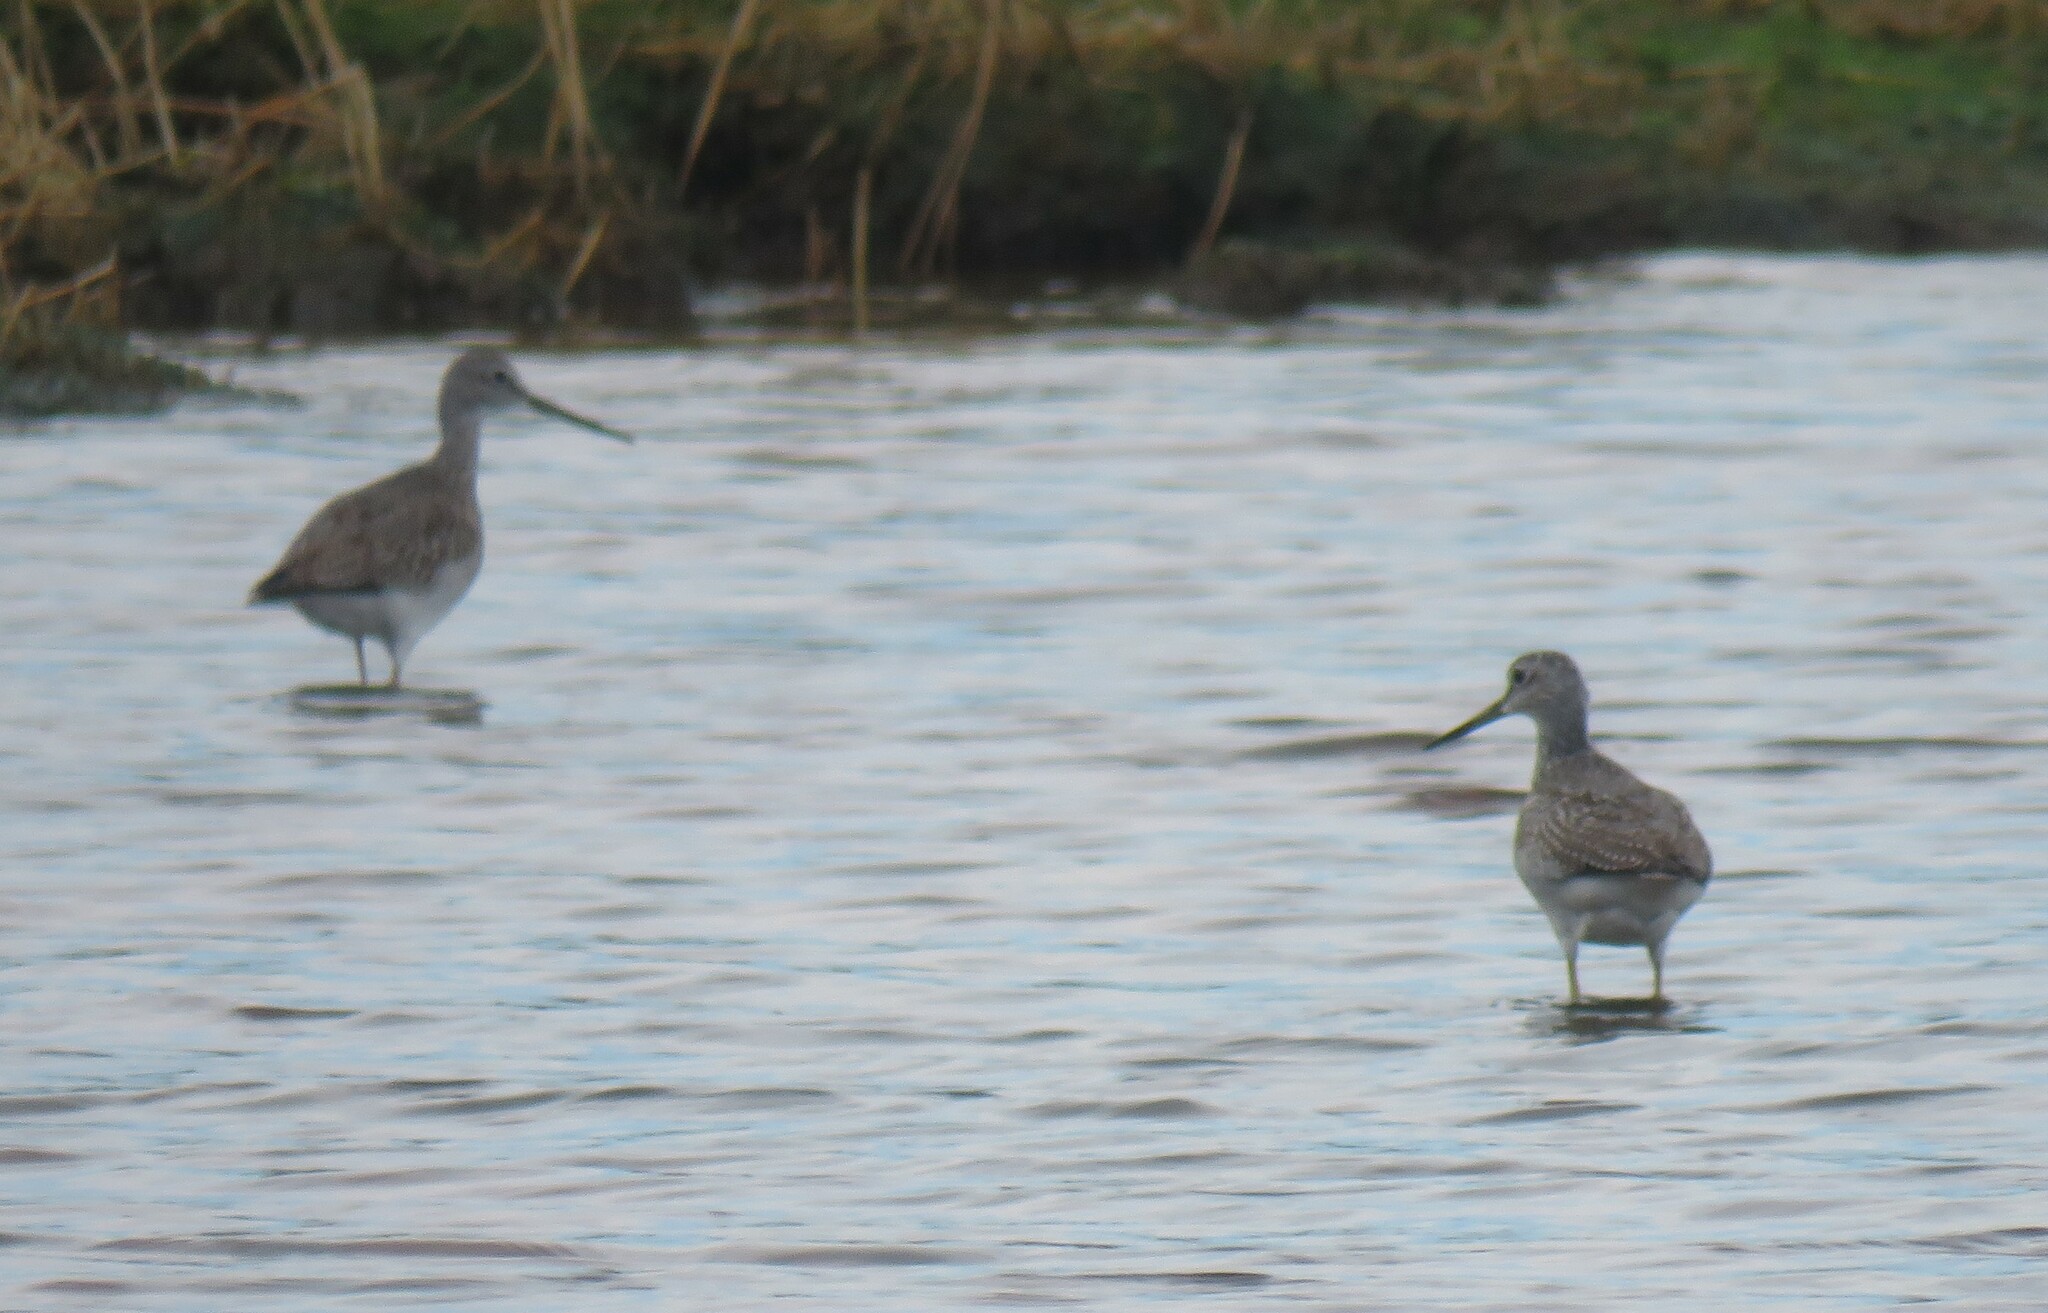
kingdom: Animalia
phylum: Chordata
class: Aves
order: Charadriiformes
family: Scolopacidae
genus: Tringa
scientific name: Tringa flavipes
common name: Lesser yellowlegs
